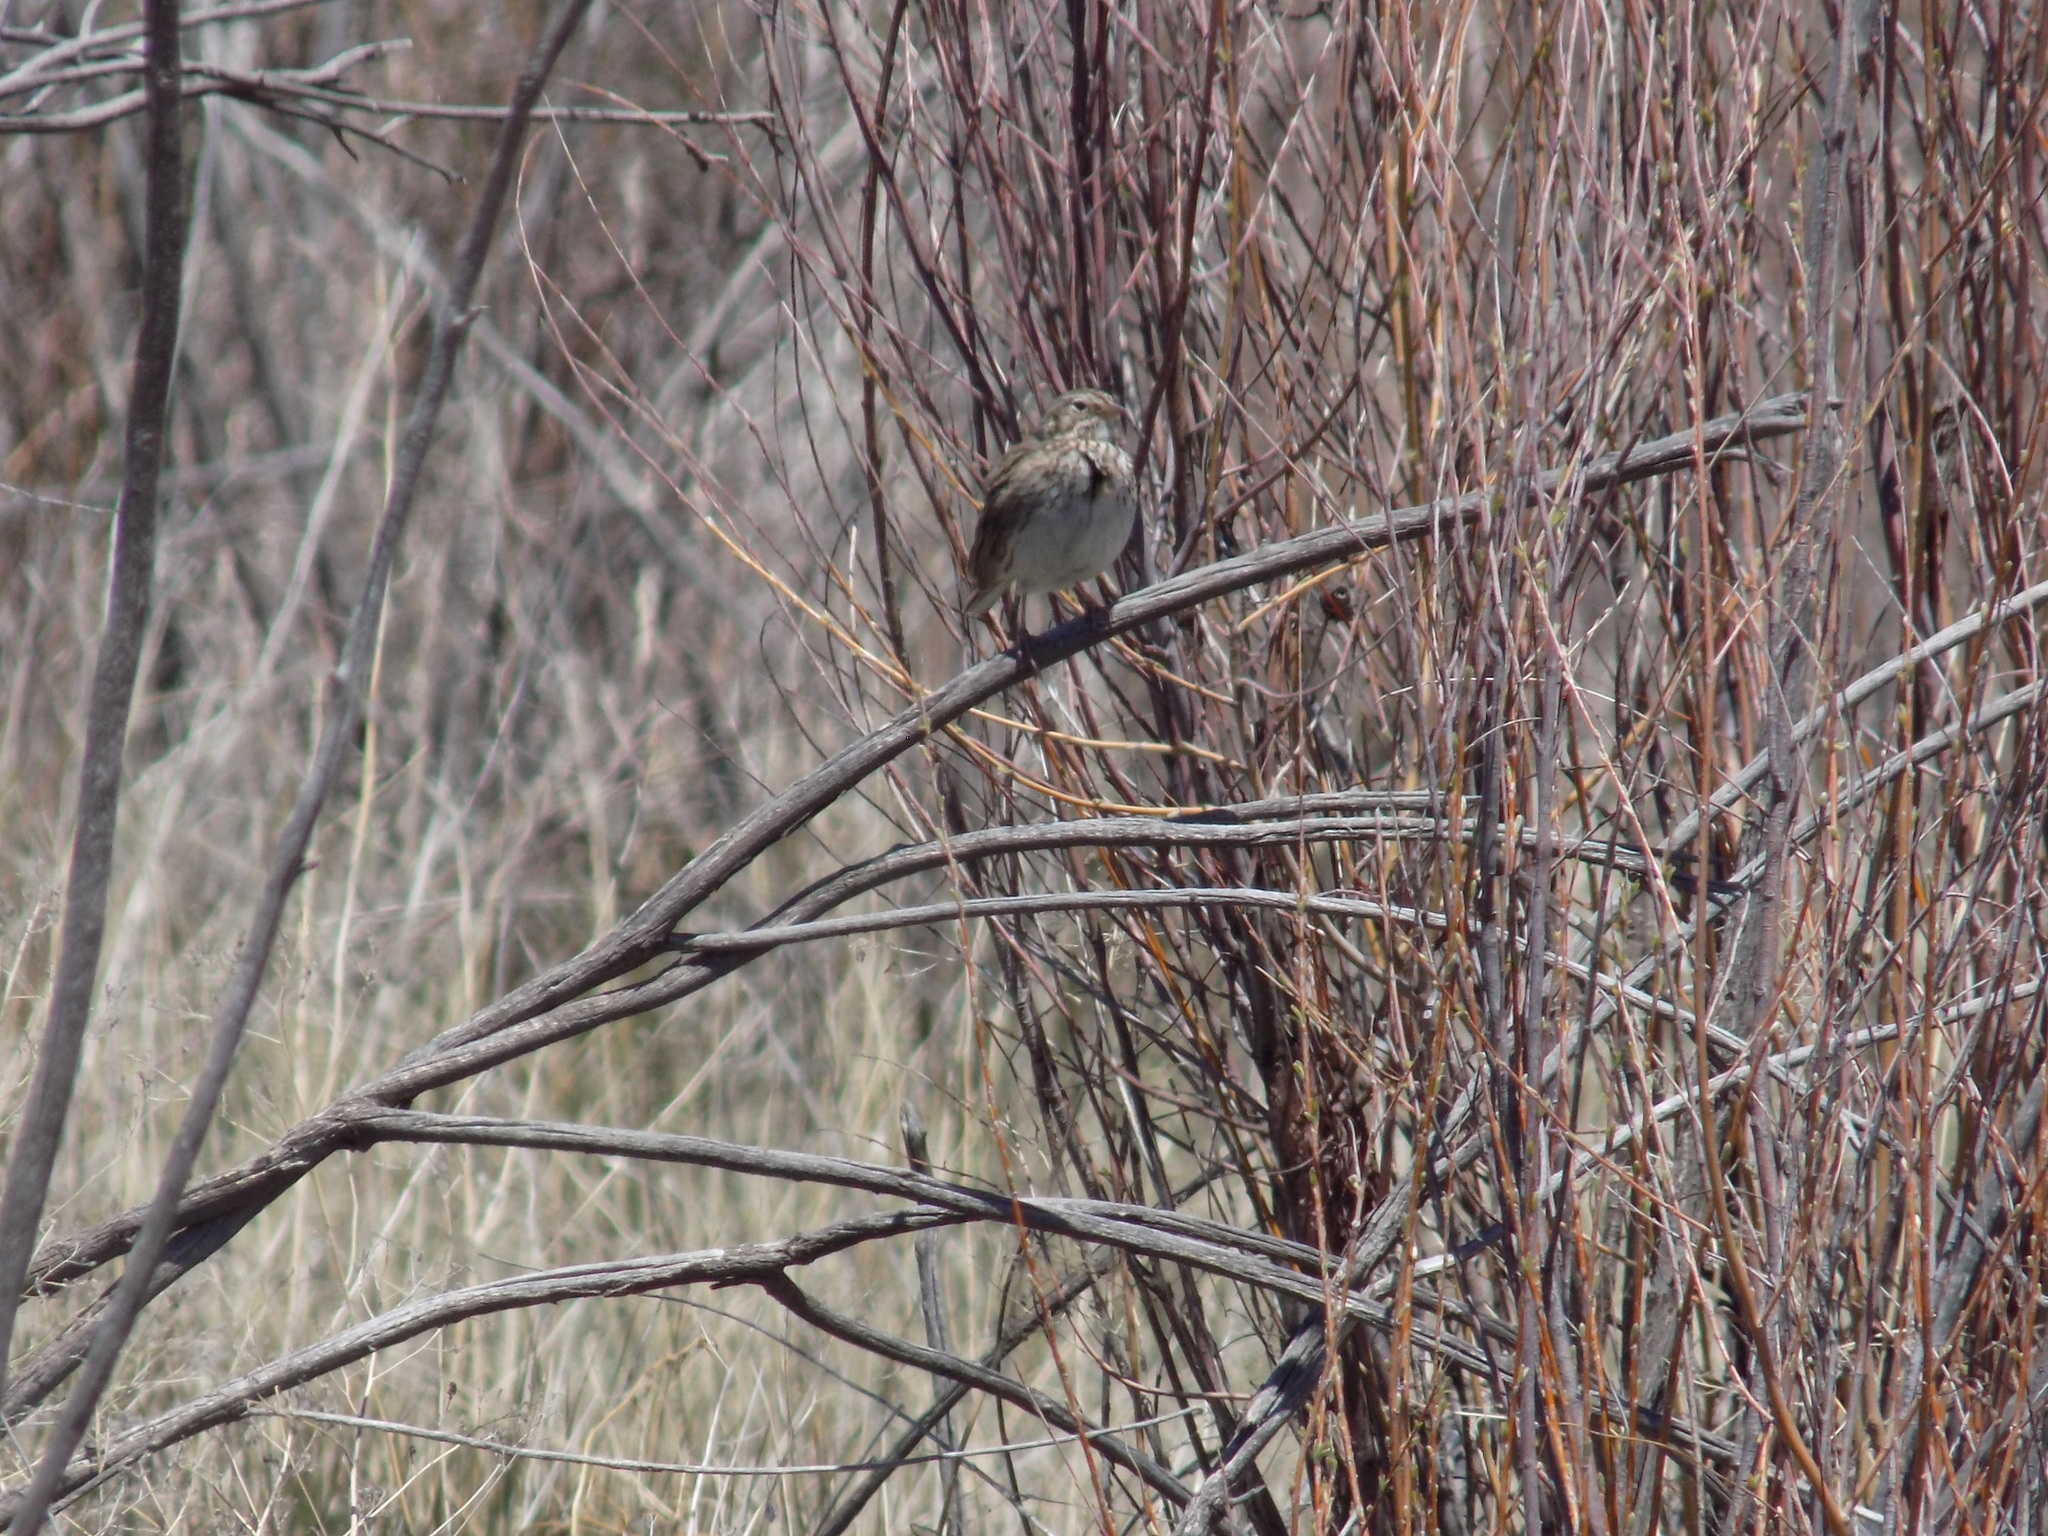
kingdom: Animalia
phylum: Chordata
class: Aves
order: Passeriformes
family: Passerellidae
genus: Pooecetes
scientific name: Pooecetes gramineus
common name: Vesper sparrow
